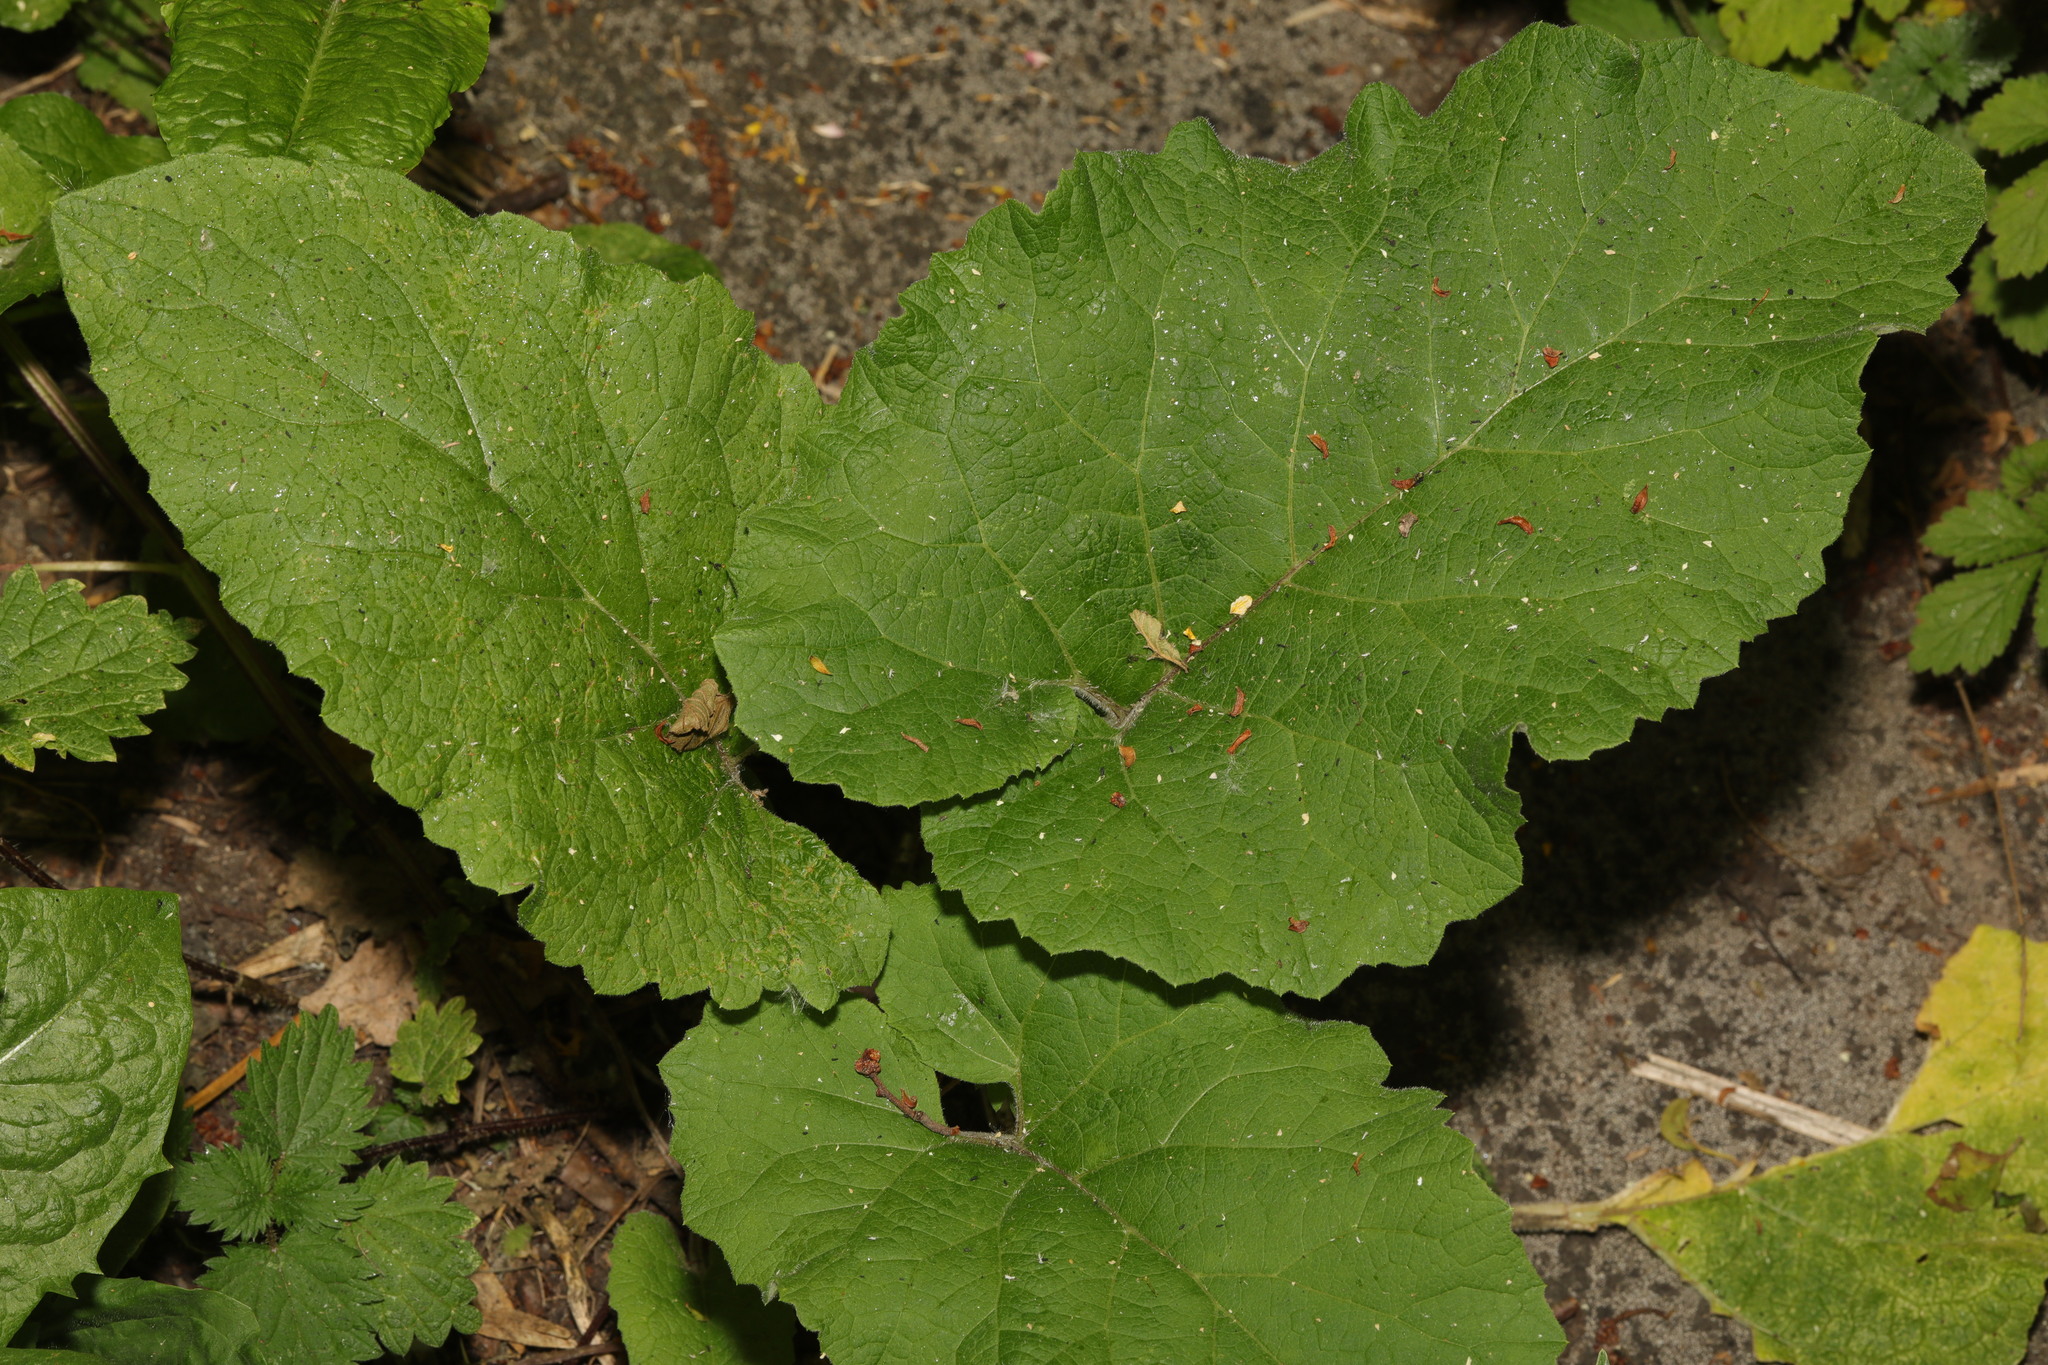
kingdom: Plantae
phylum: Tracheophyta
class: Magnoliopsida
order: Asterales
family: Asteraceae
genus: Arctium
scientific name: Arctium minus
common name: Lesser burdock
